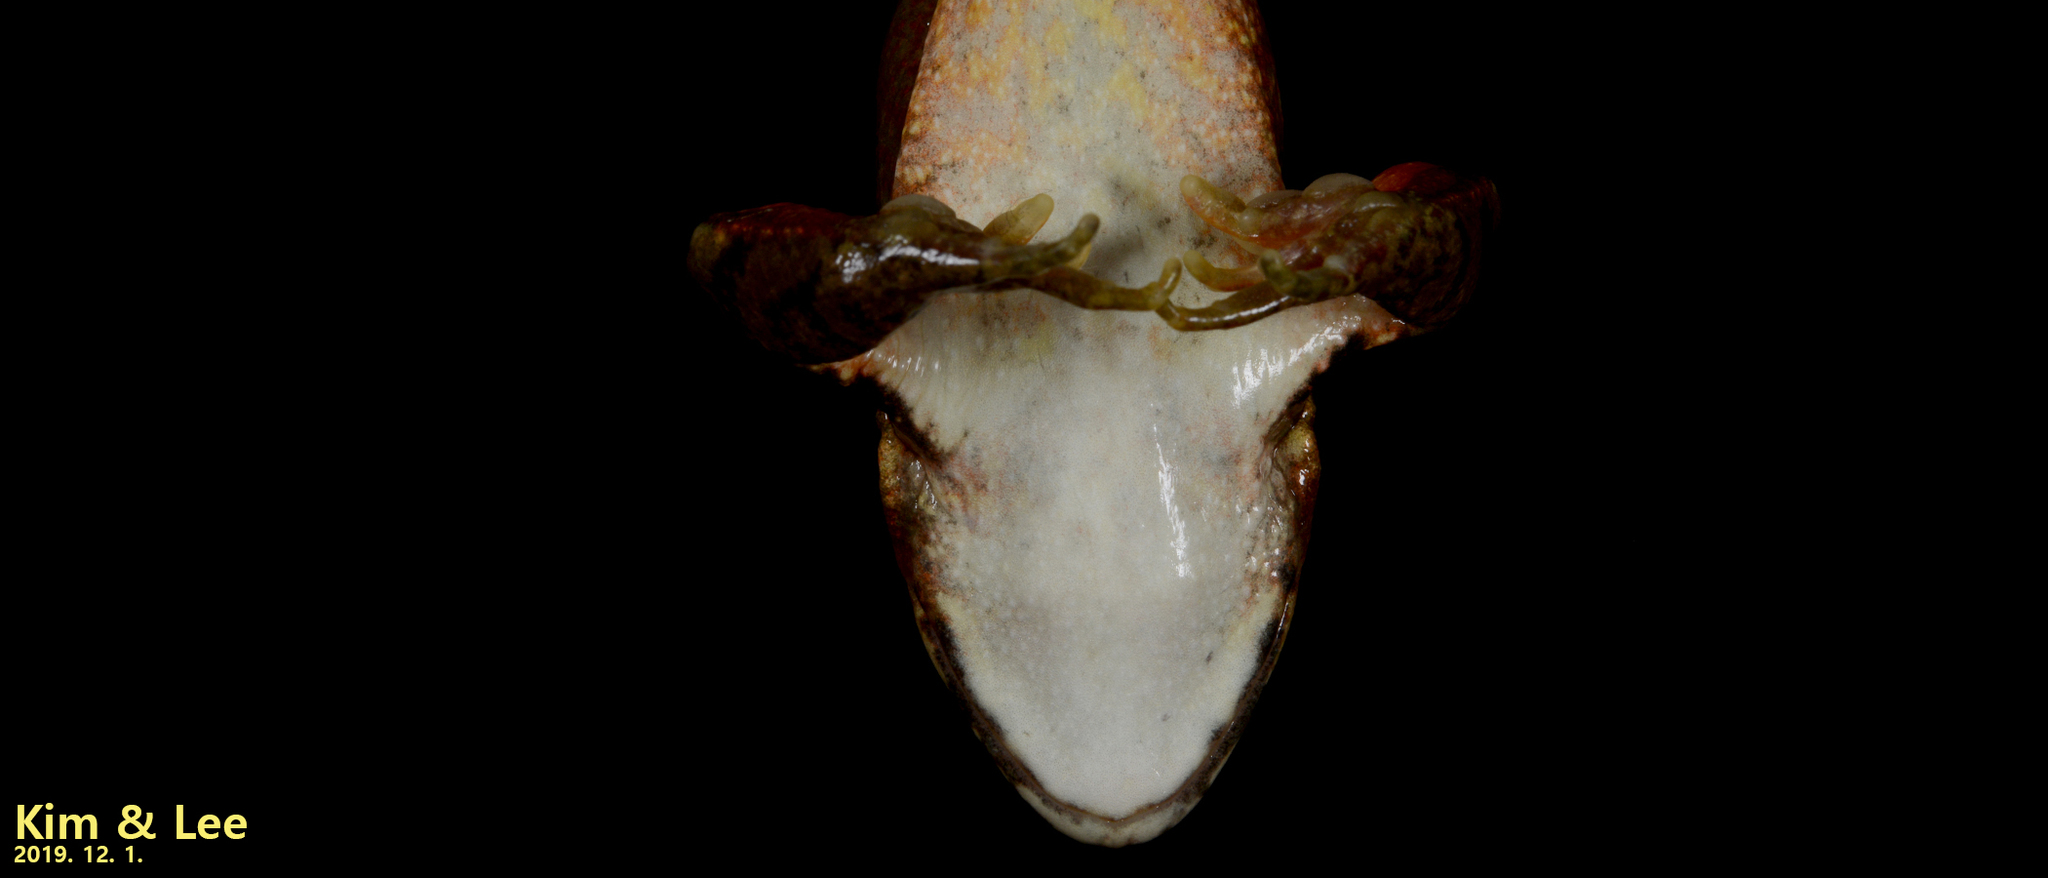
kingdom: Animalia
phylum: Chordata
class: Amphibia
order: Anura
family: Ranidae
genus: Rana
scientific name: Rana dybowskii
